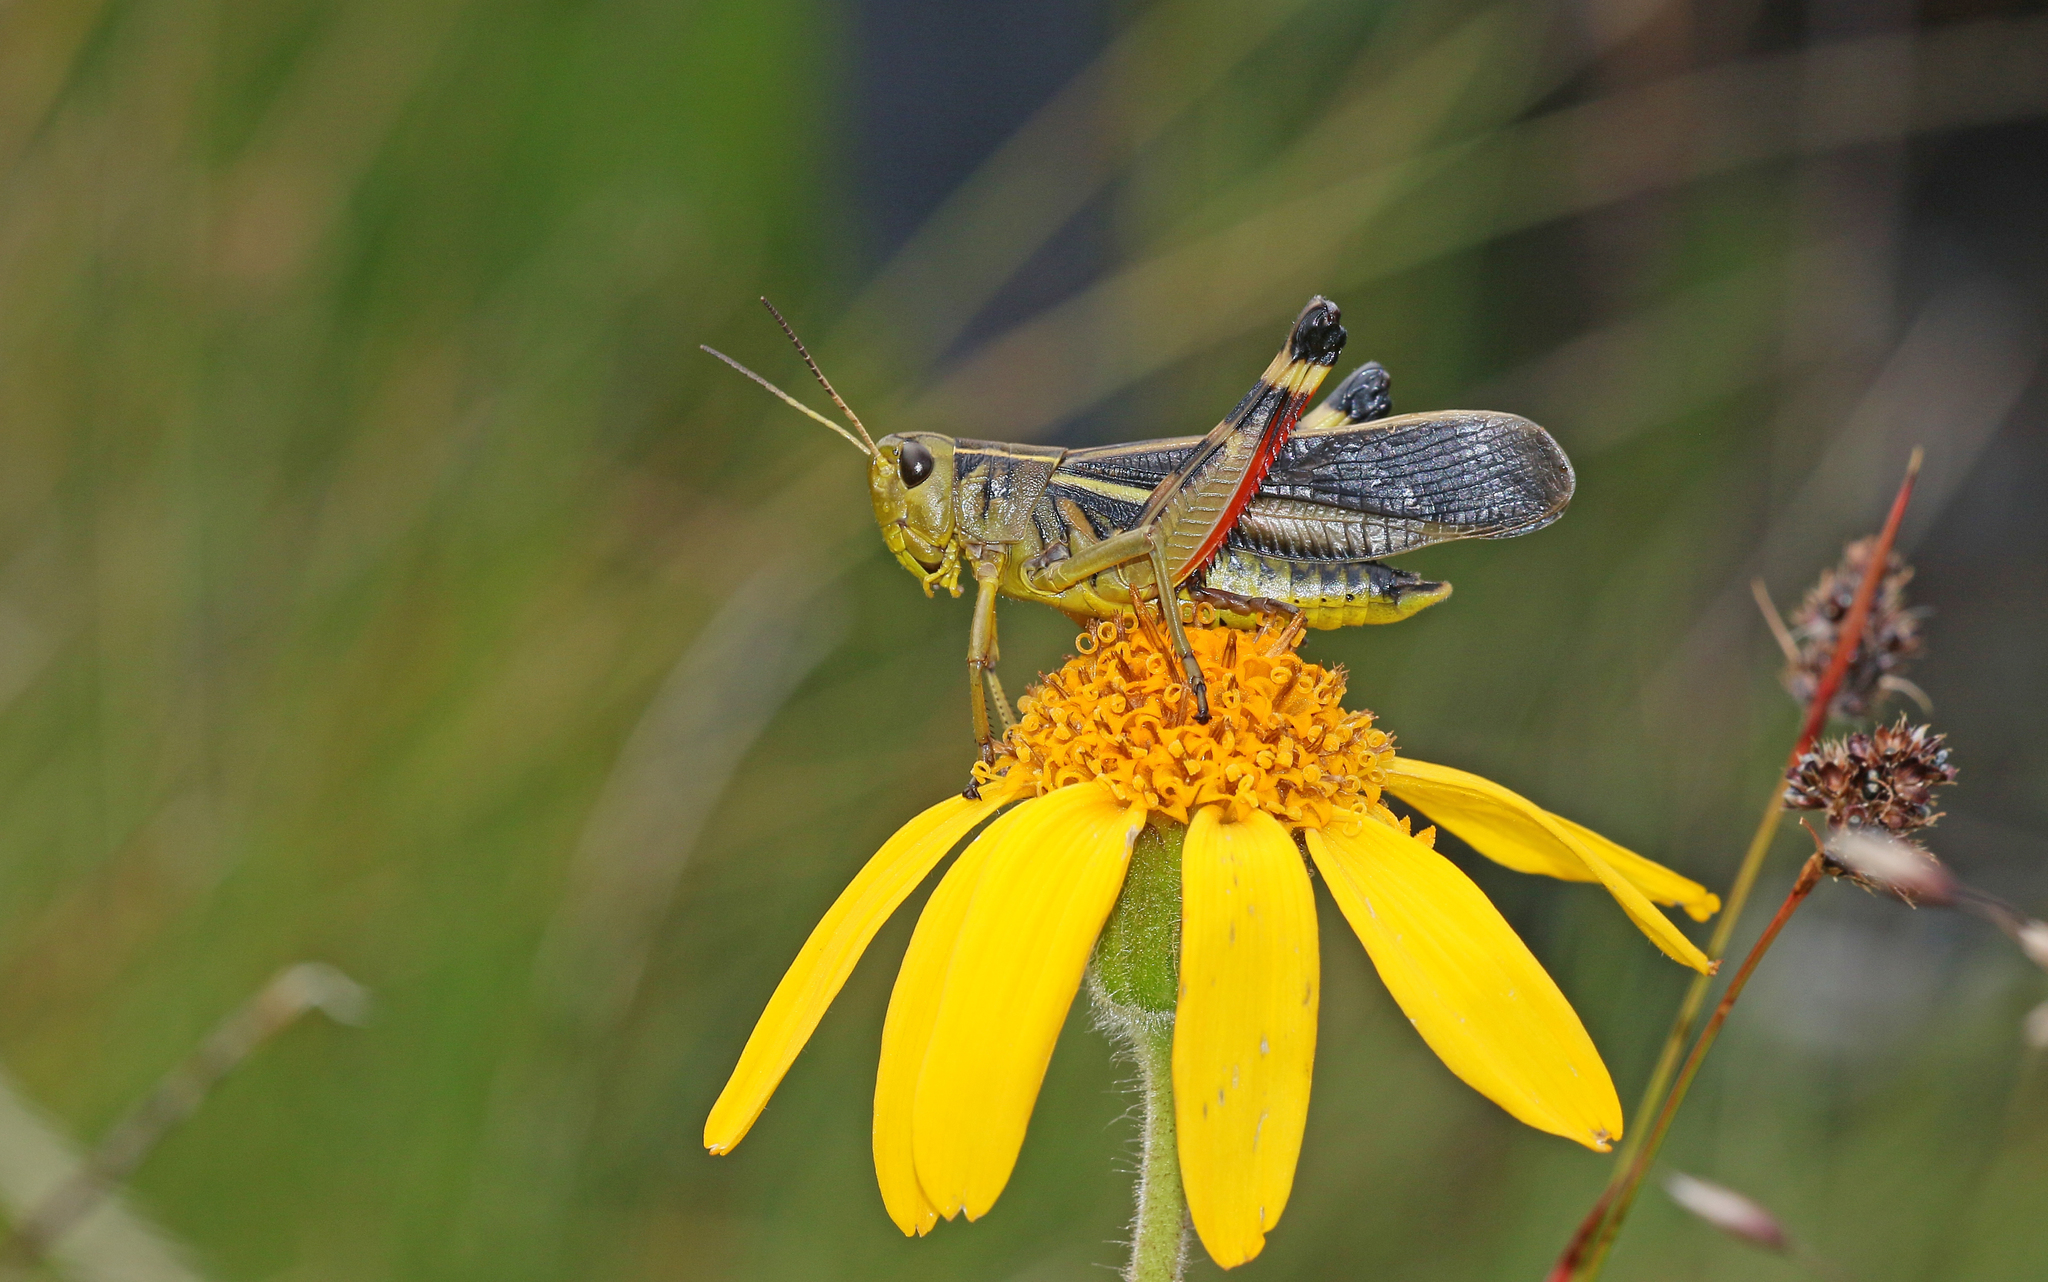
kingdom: Animalia
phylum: Arthropoda
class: Insecta
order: Orthoptera
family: Acrididae
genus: Arcyptera
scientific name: Arcyptera fusca
